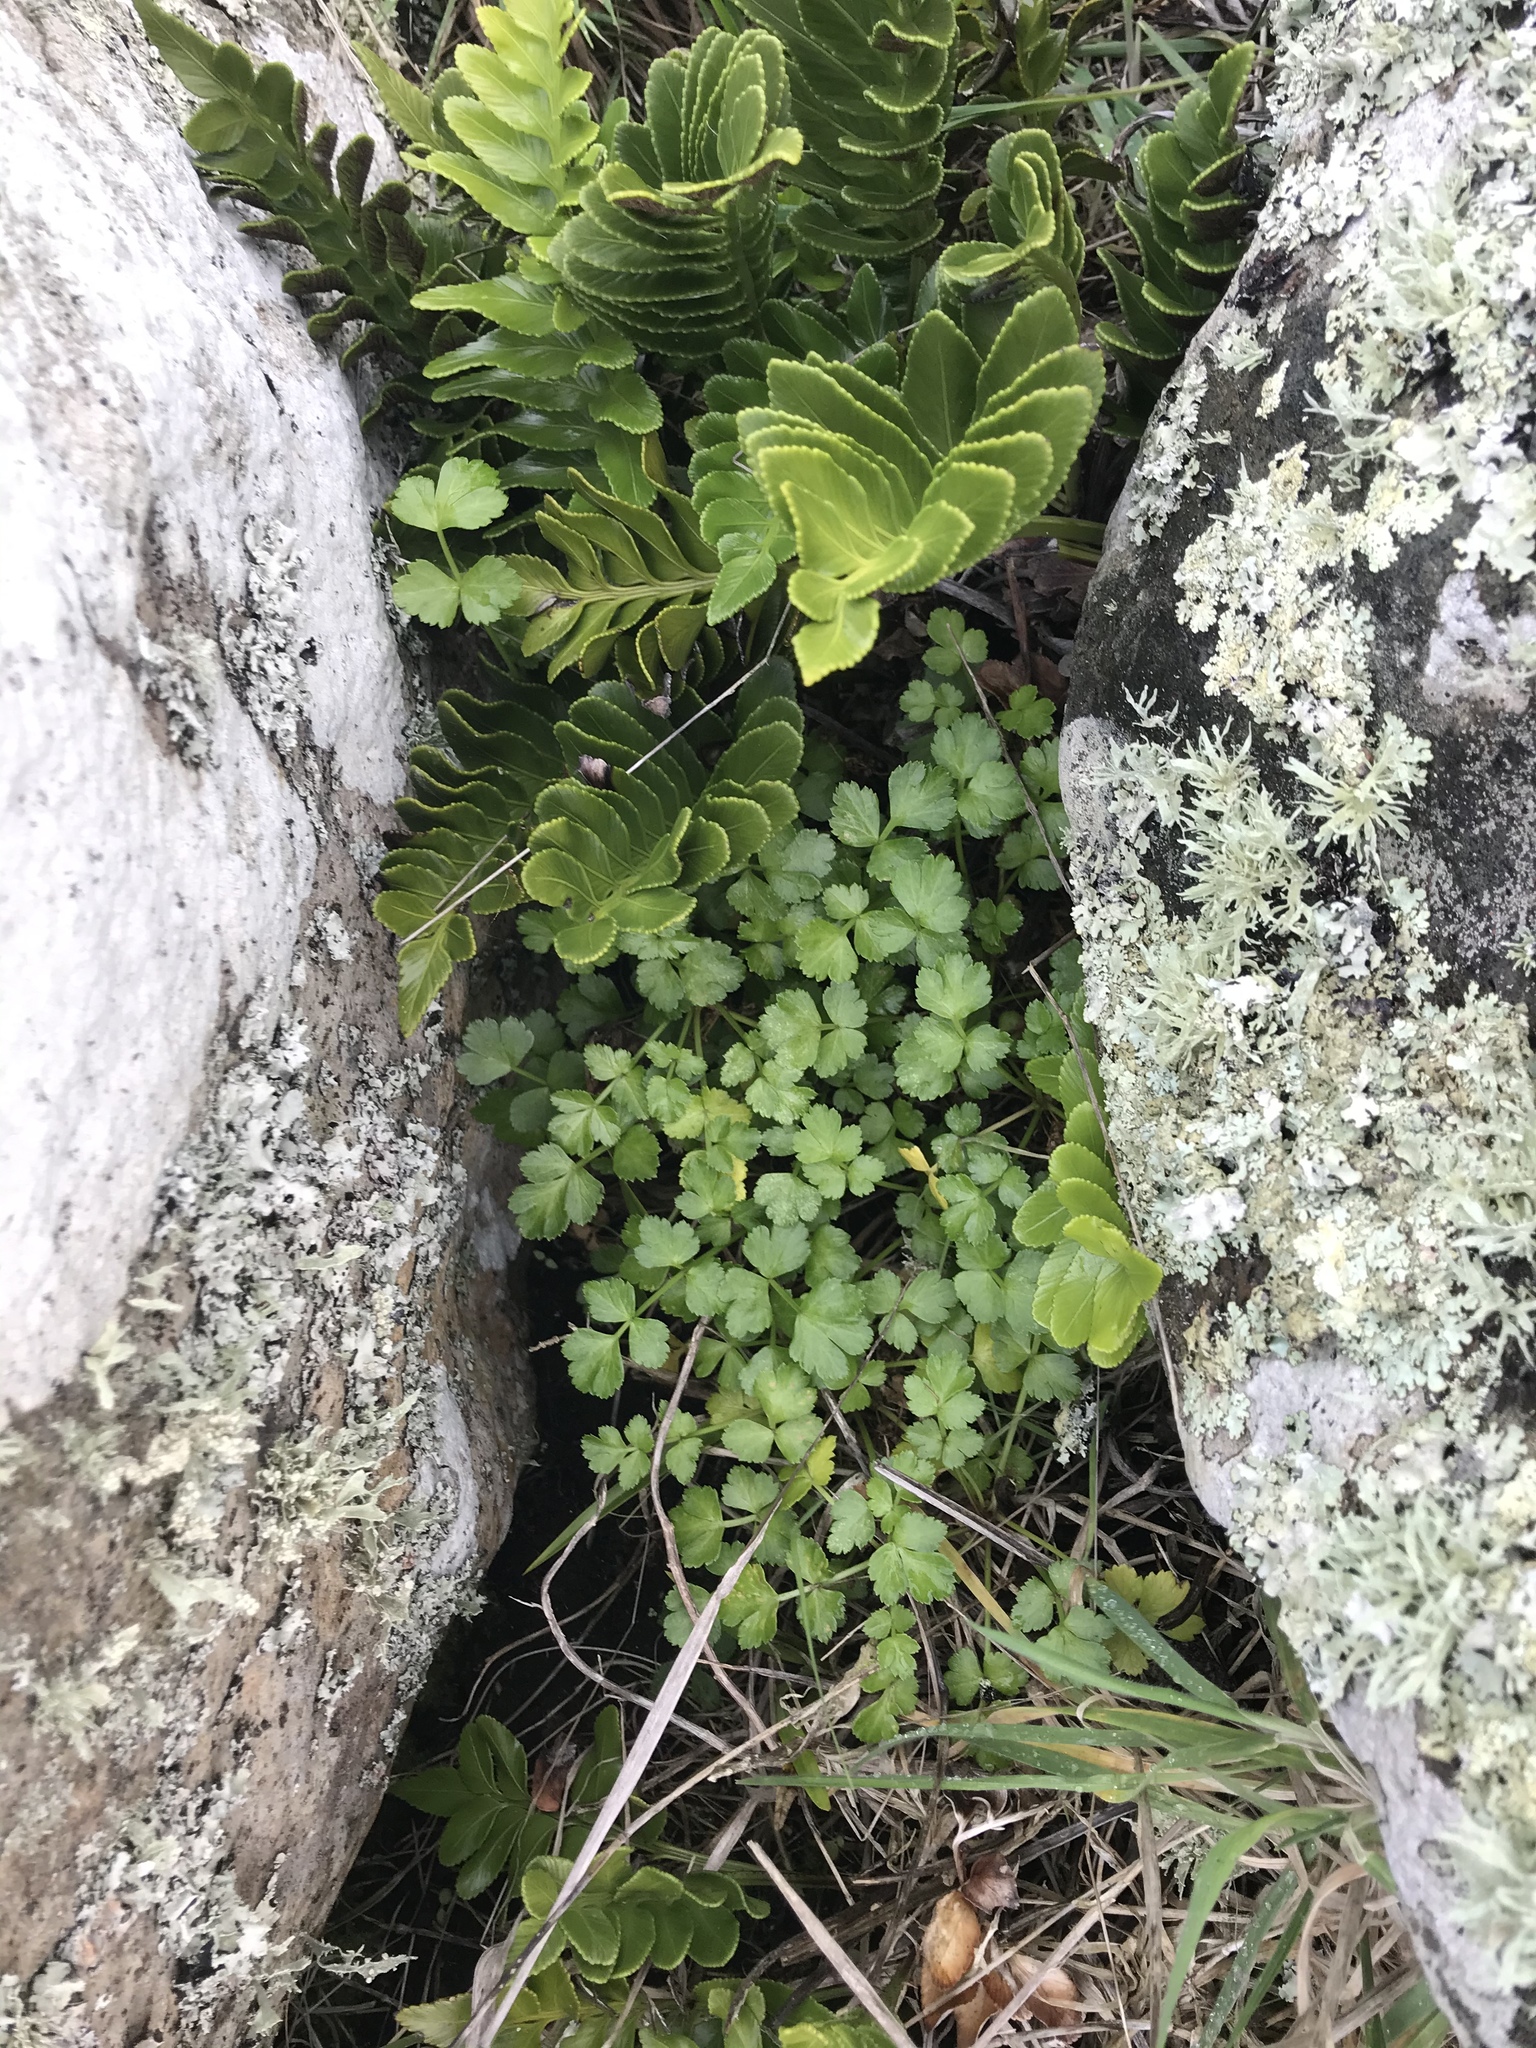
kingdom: Plantae
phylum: Tracheophyta
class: Magnoliopsida
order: Apiales
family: Apiaceae
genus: Apium
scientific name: Apium prostratum
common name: Prostrate marshwort
